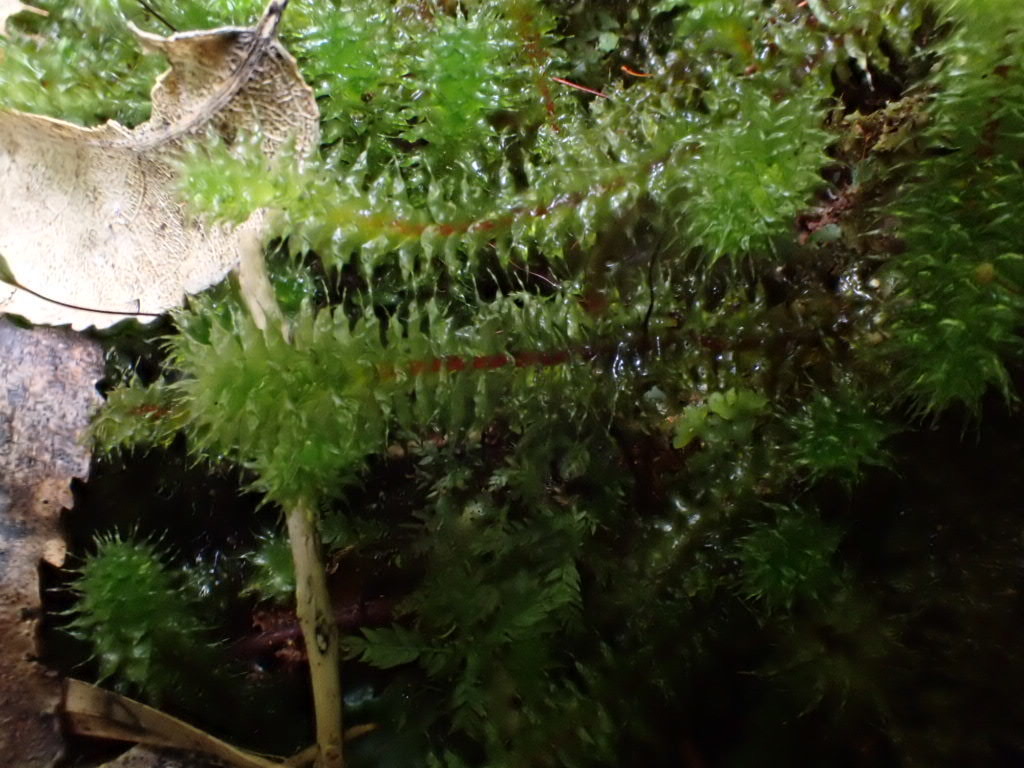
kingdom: Plantae
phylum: Bryophyta
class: Bryopsida
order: Ptychomniales
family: Ptychomniaceae
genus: Ptychomnion
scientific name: Ptychomnion aciculare
